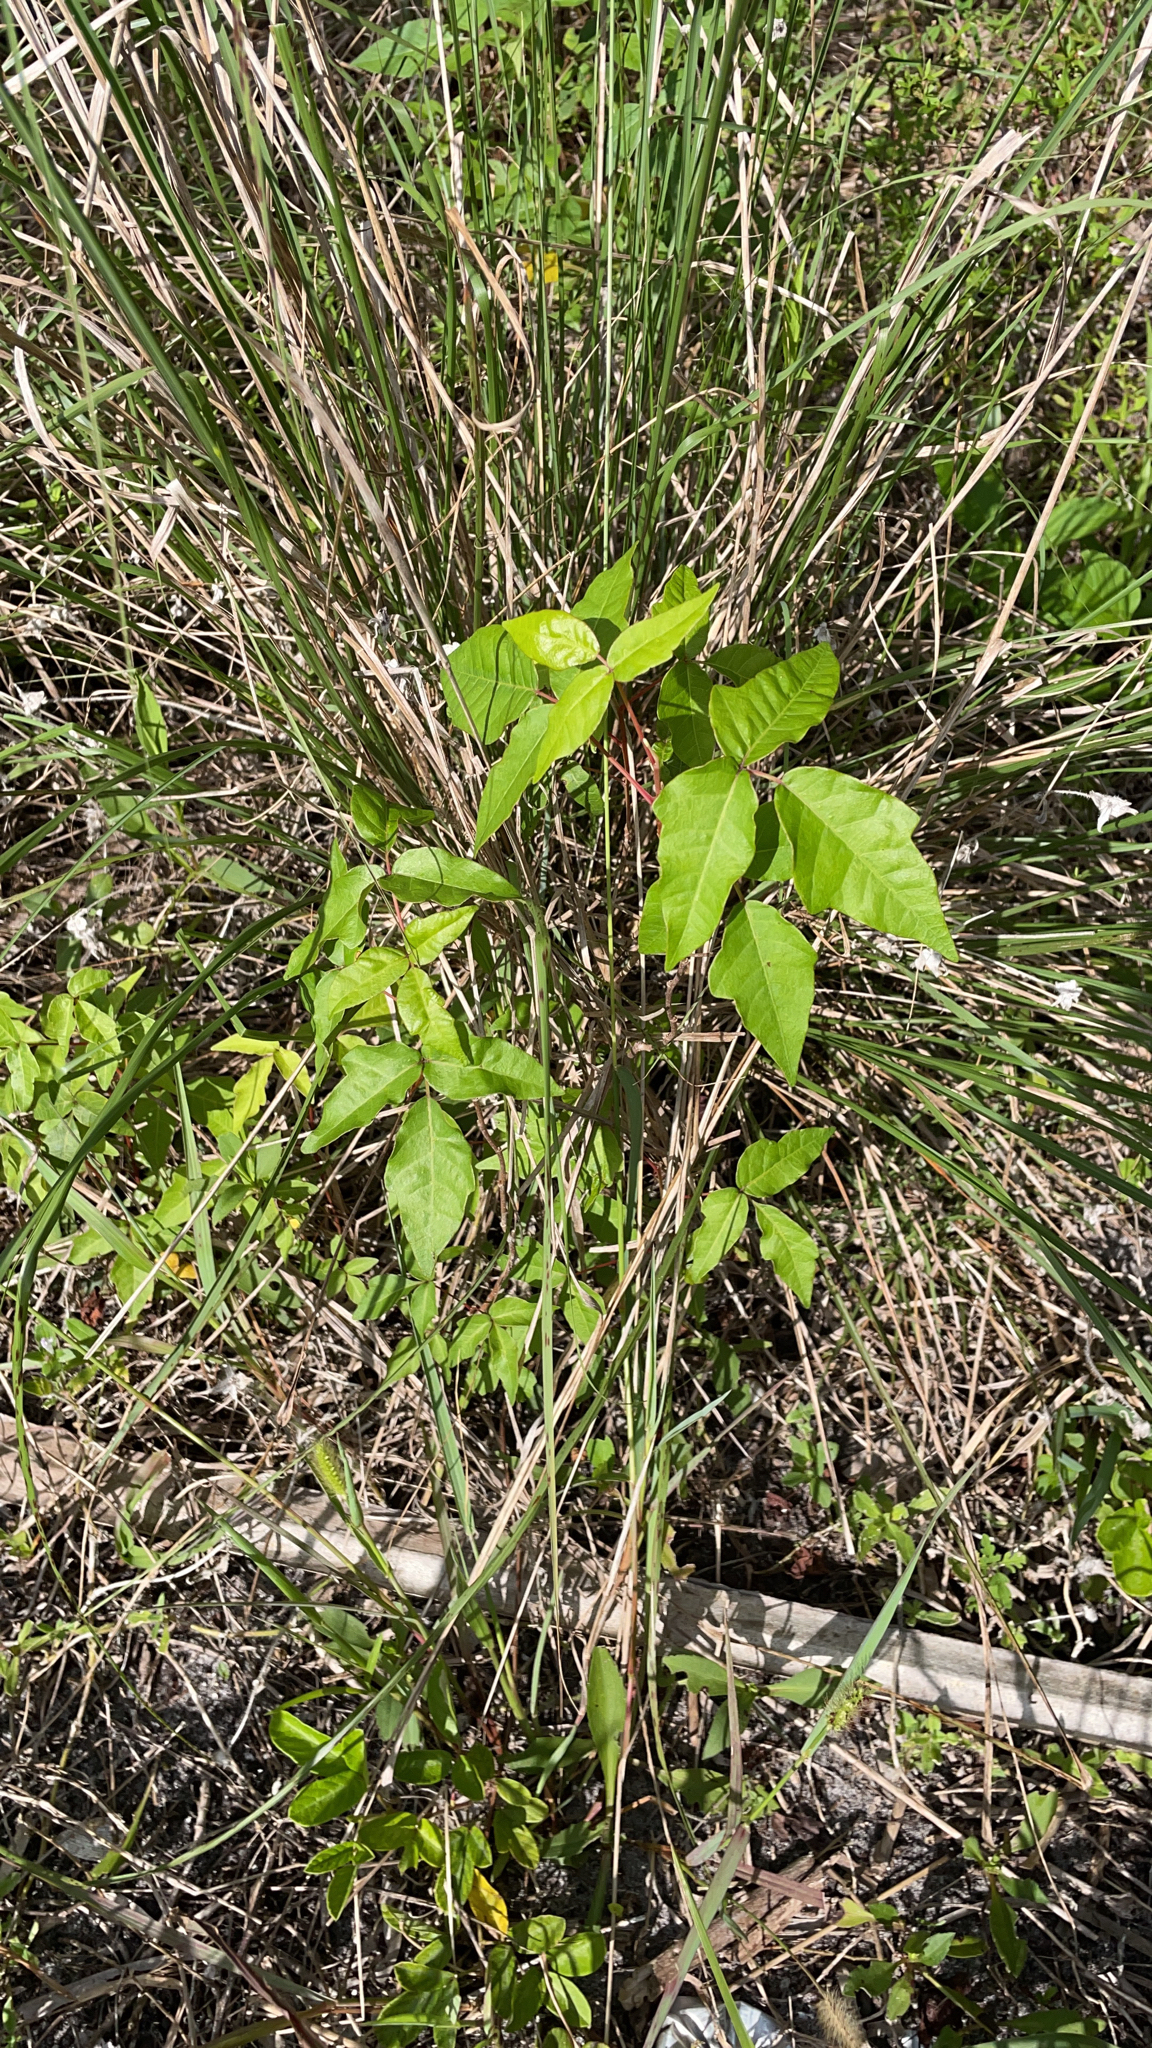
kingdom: Plantae
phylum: Tracheophyta
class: Magnoliopsida
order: Sapindales
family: Anacardiaceae
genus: Toxicodendron
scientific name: Toxicodendron radicans
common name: Poison ivy
